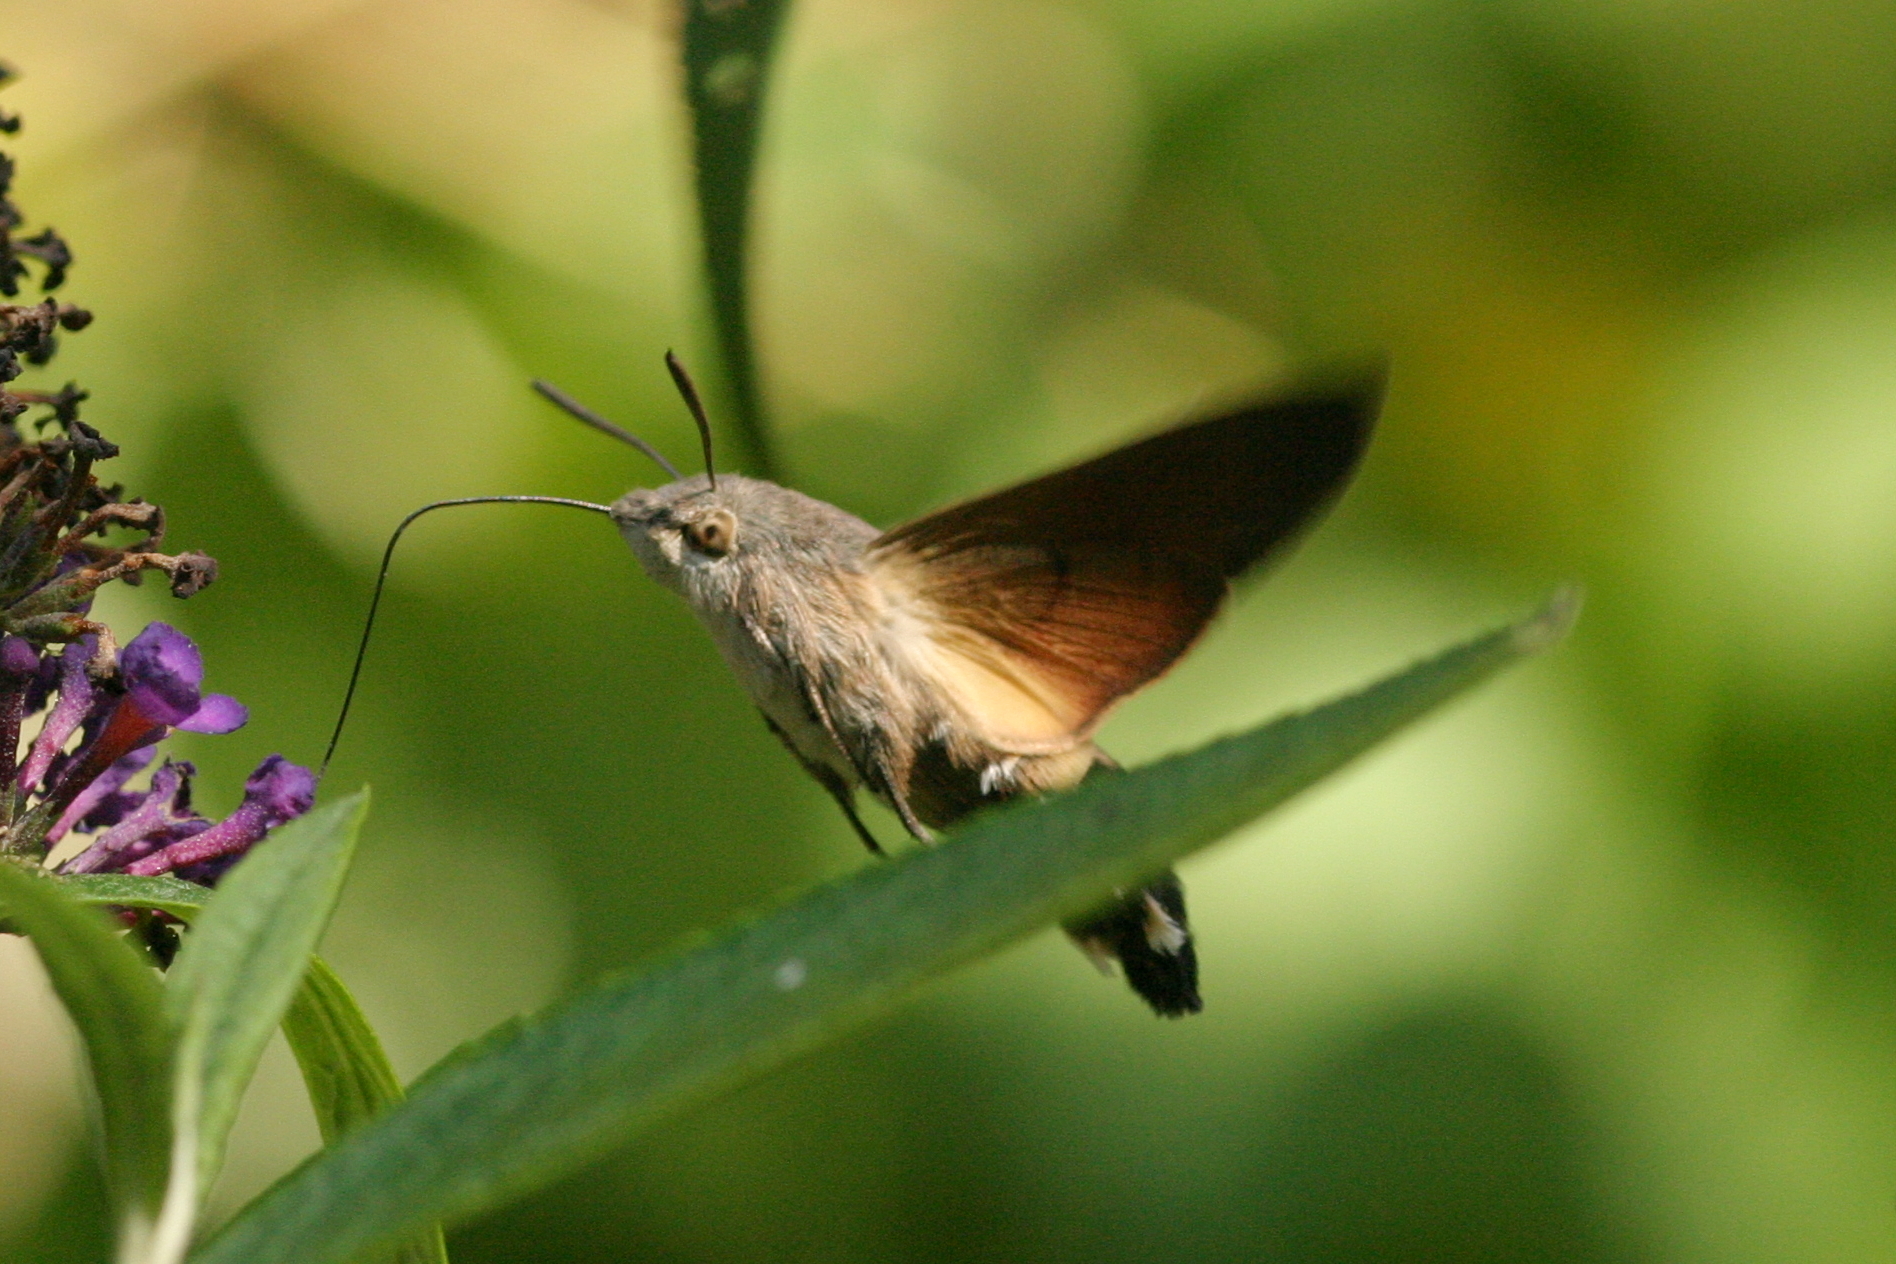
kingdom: Animalia
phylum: Arthropoda
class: Insecta
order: Lepidoptera
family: Sphingidae
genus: Macroglossum
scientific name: Macroglossum stellatarum
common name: Humming-bird hawk-moth
